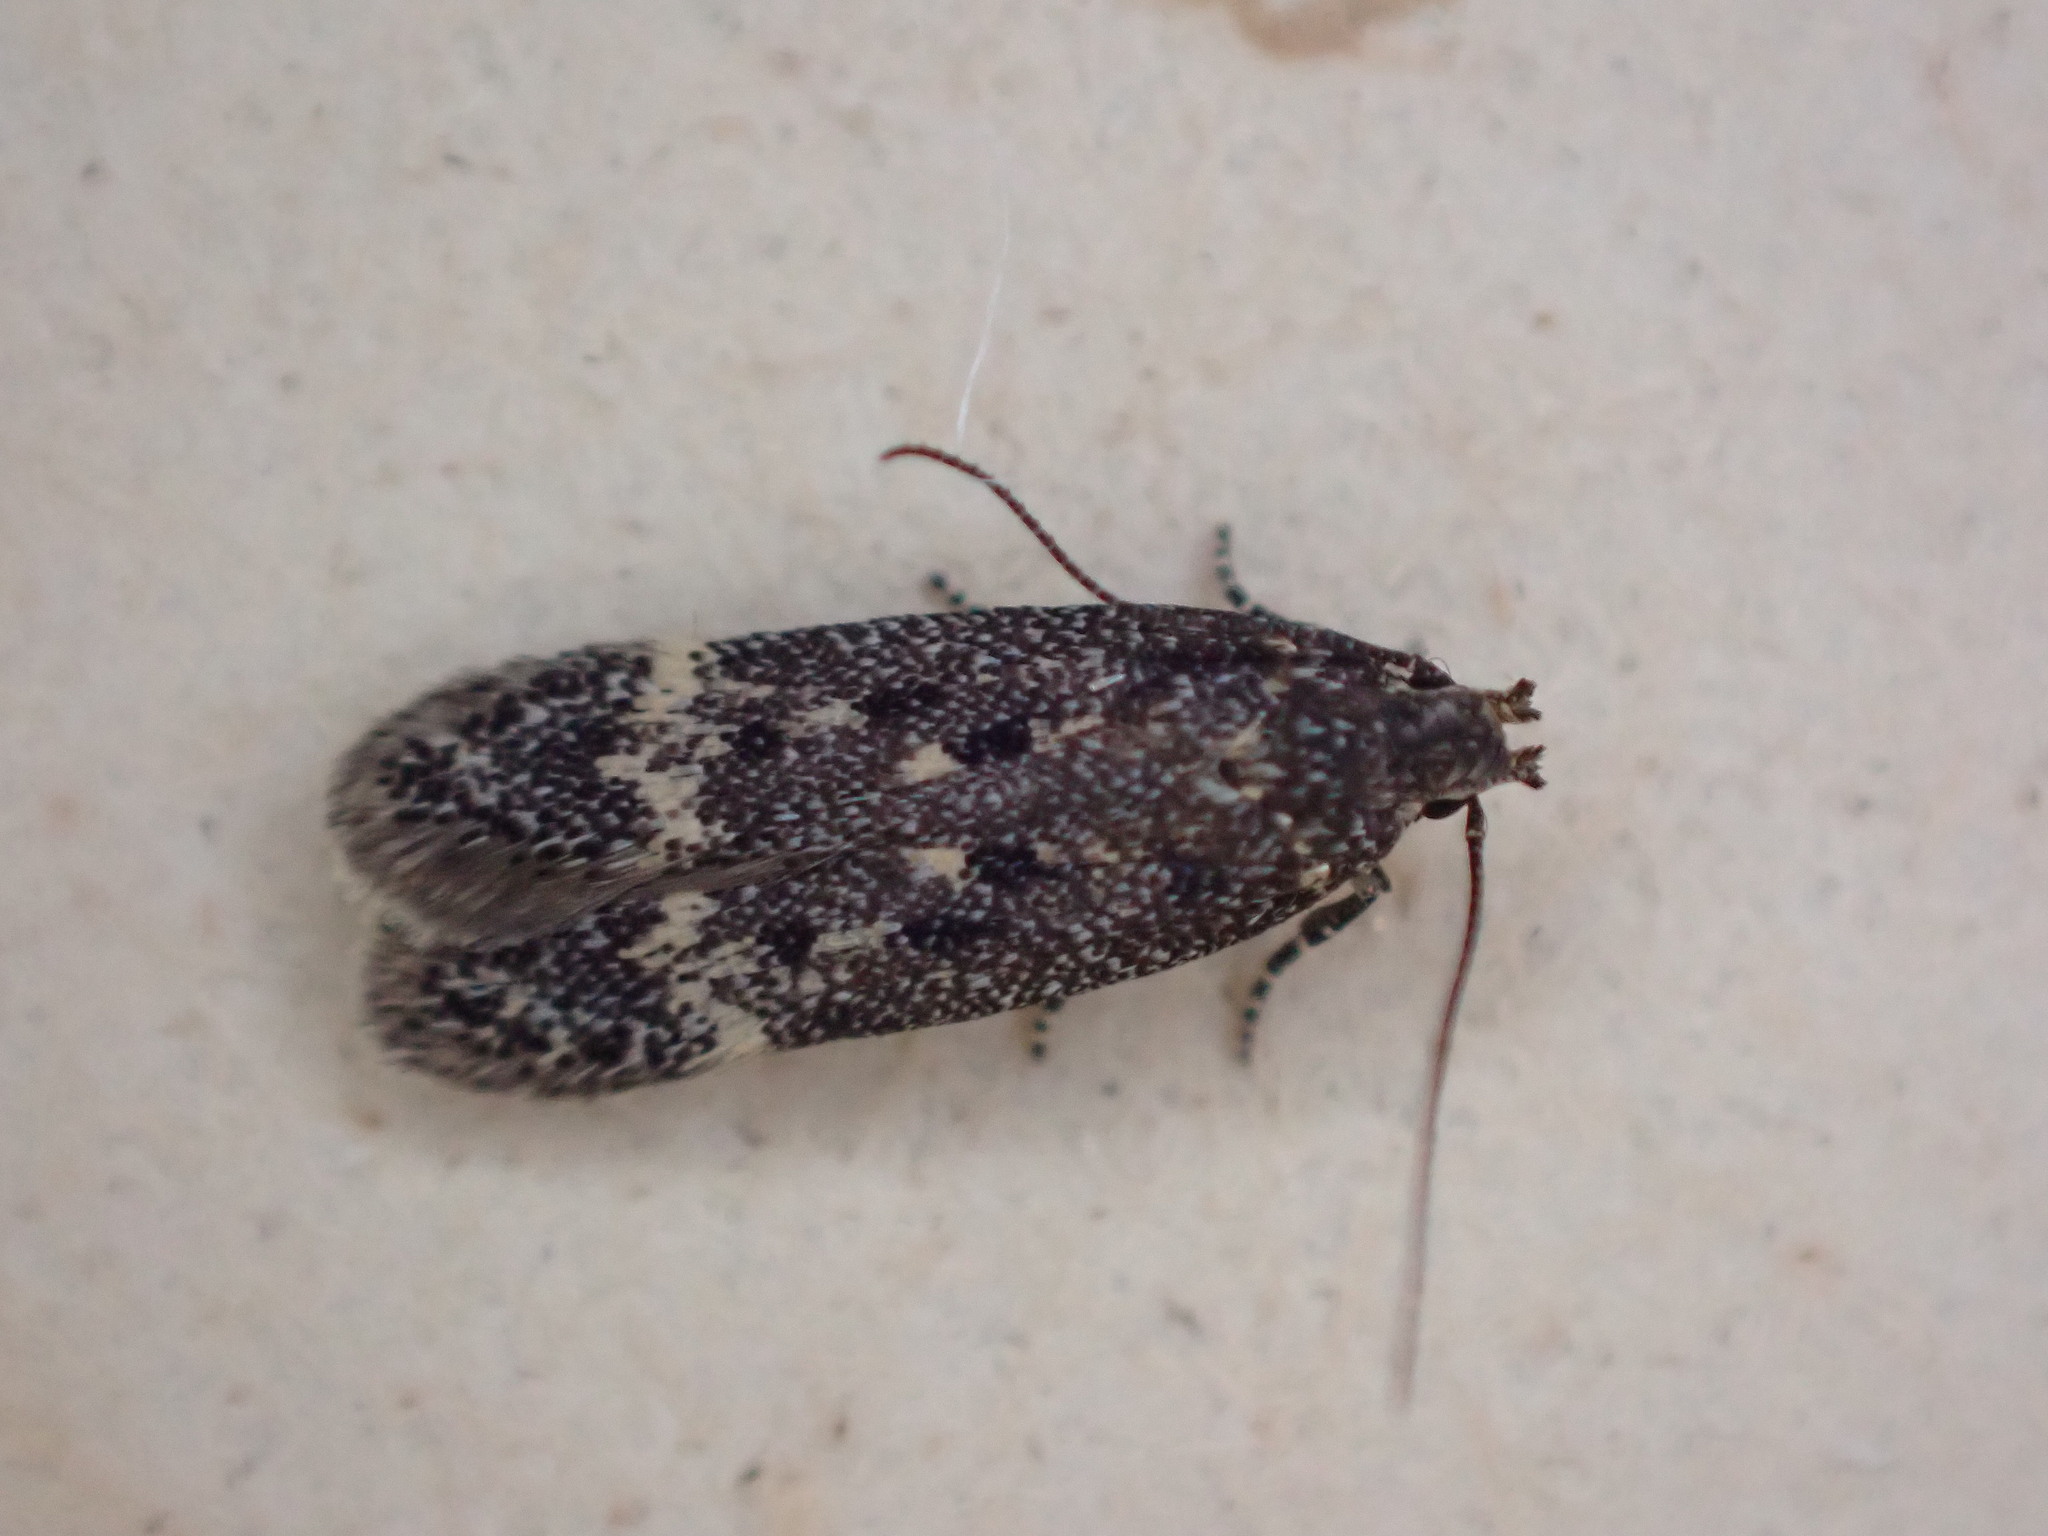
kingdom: Animalia
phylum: Arthropoda
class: Insecta
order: Lepidoptera
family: Gelechiidae
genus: Bryotropha
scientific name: Bryotropha affinis
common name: Dark groundling
